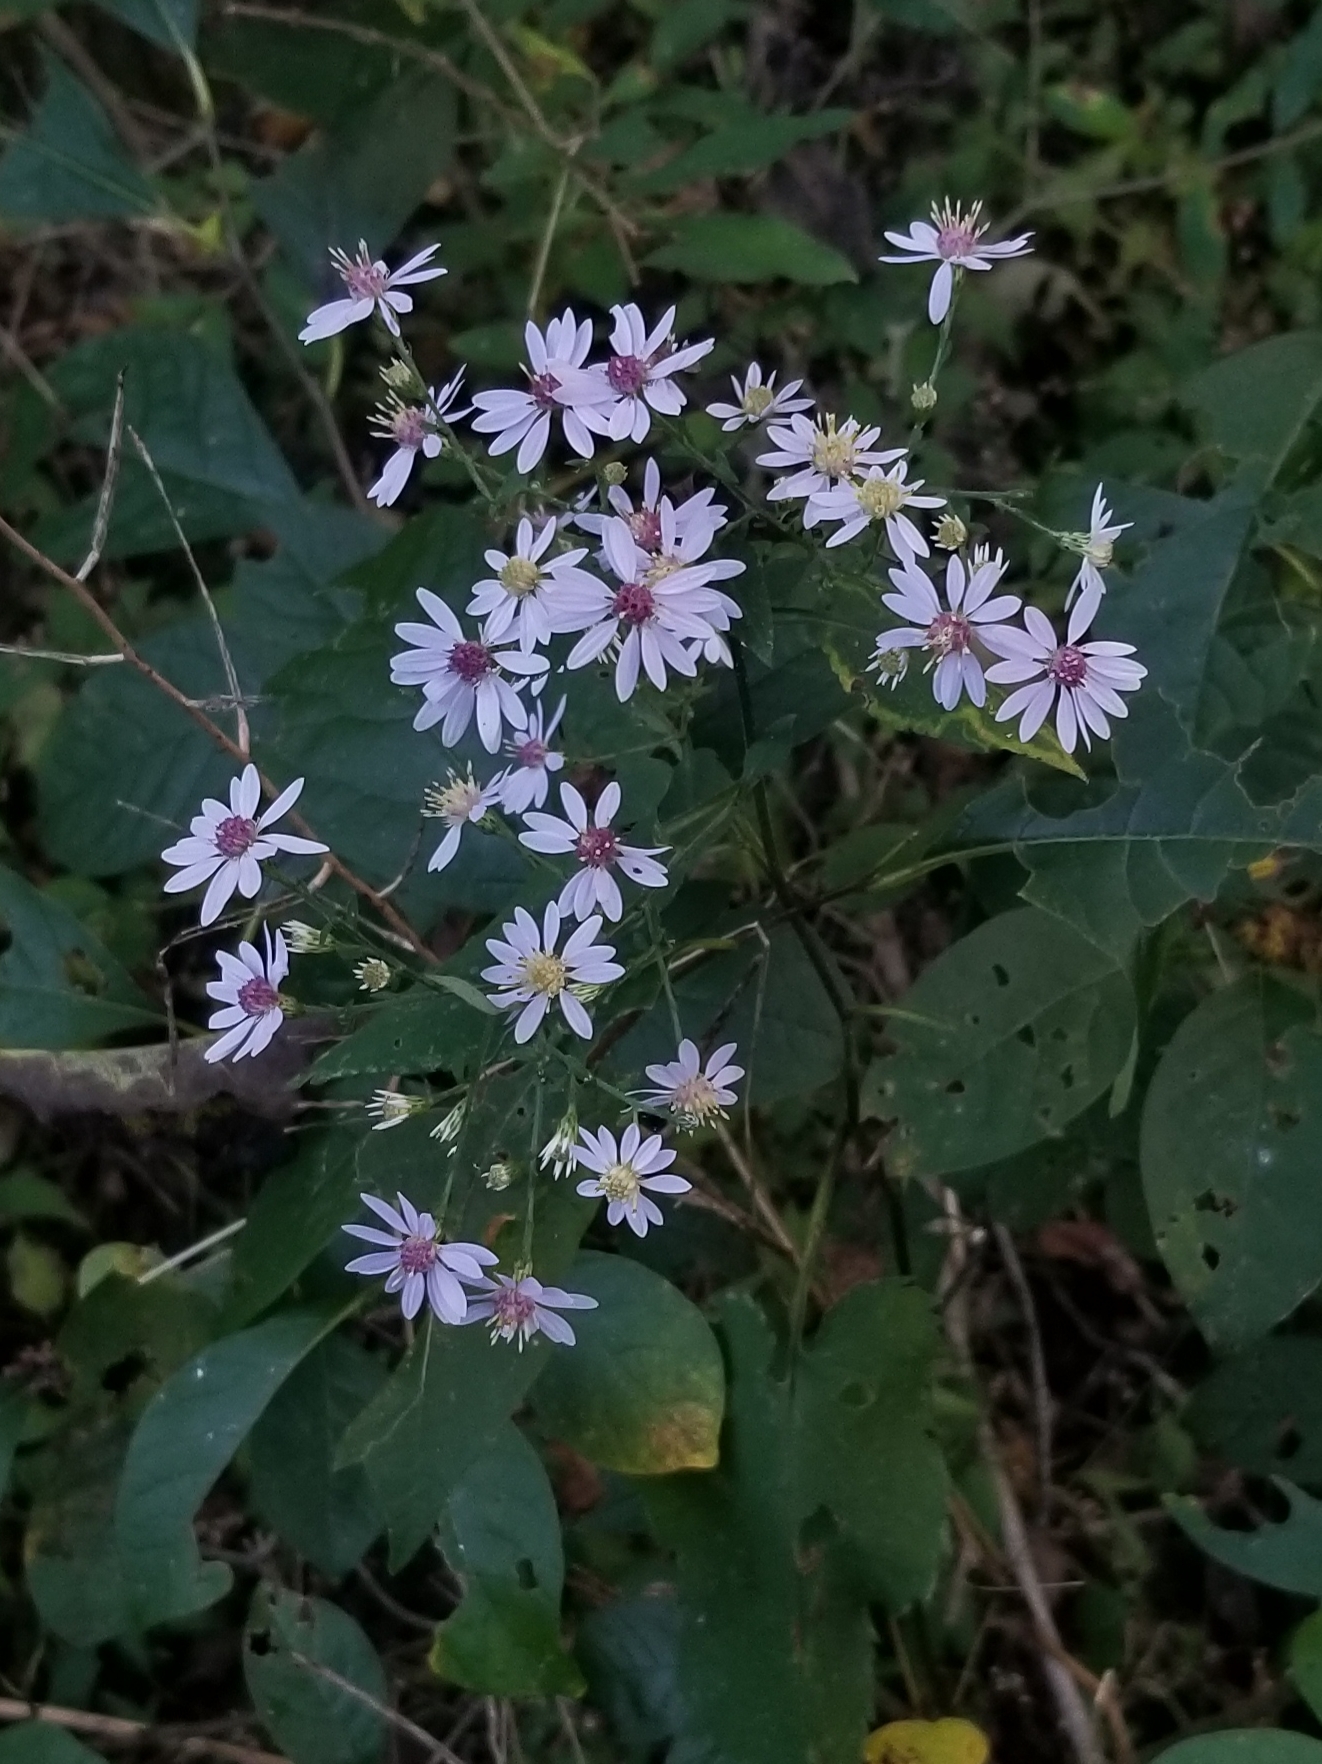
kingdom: Plantae
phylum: Tracheophyta
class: Magnoliopsida
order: Asterales
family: Asteraceae
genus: Symphyotrichum
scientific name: Symphyotrichum cordifolium
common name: Beeweed
